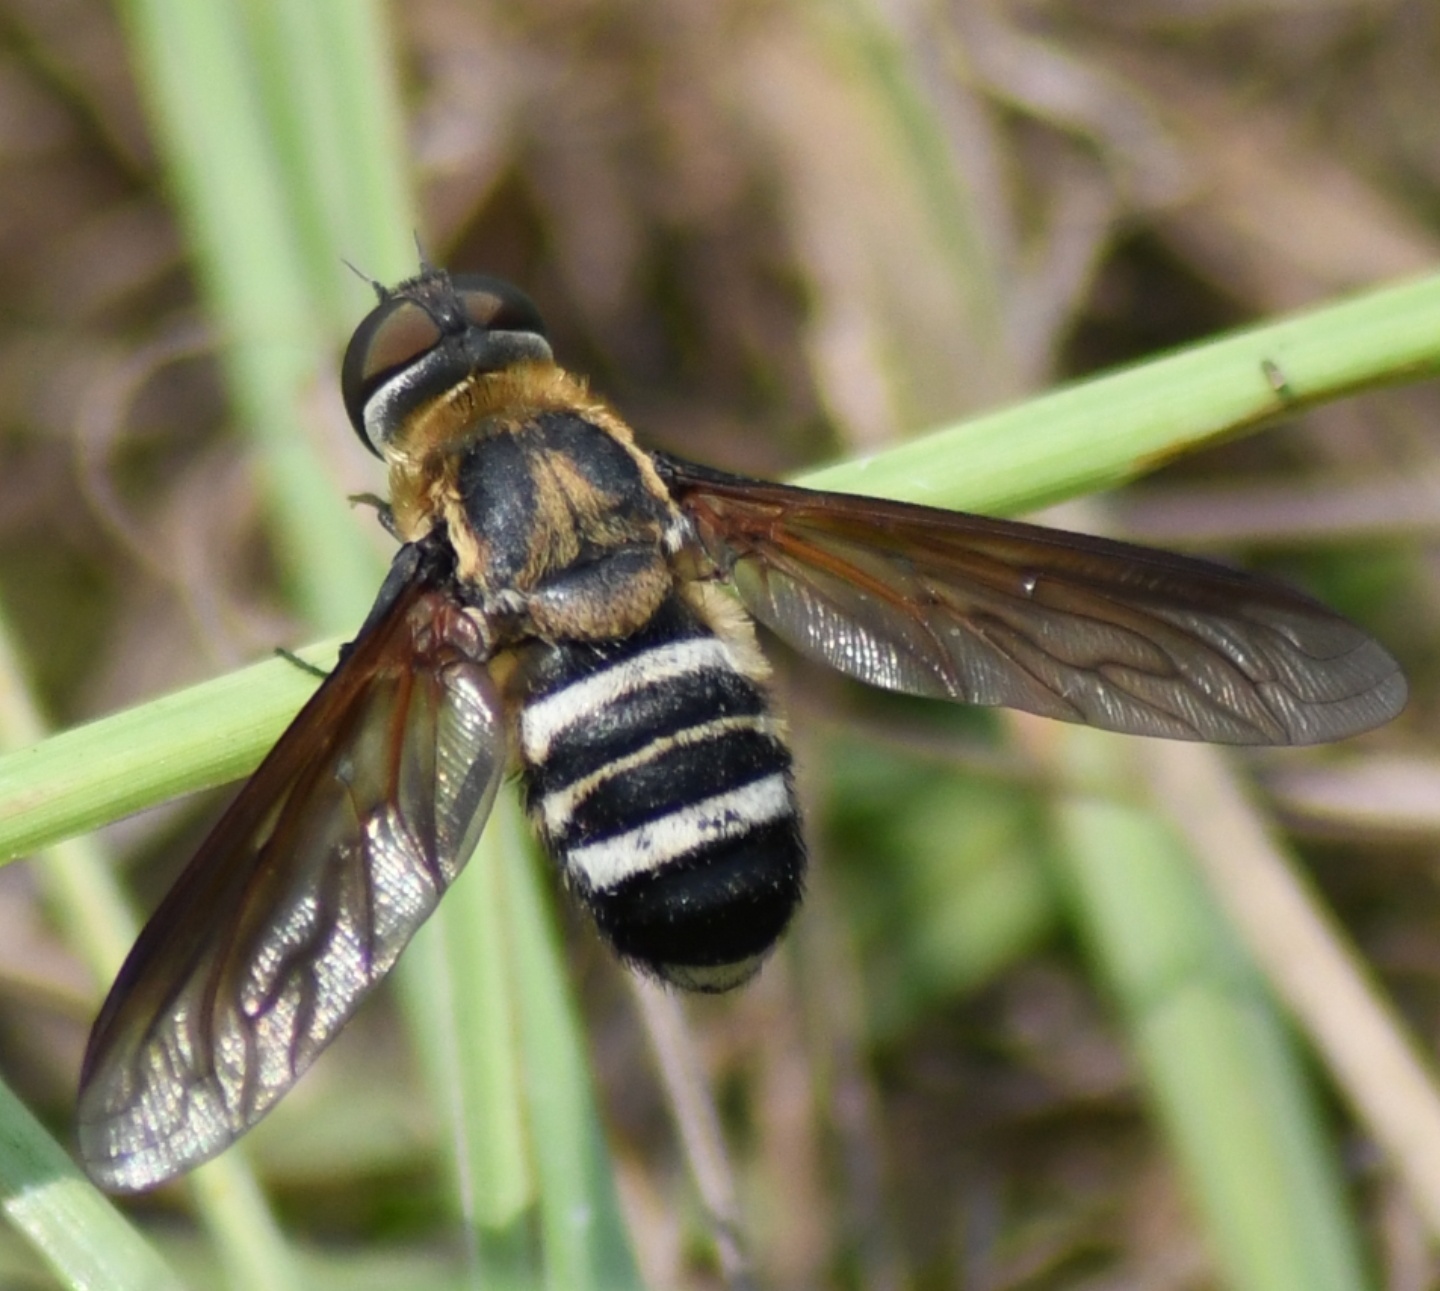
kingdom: Animalia
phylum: Arthropoda
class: Insecta
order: Diptera
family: Bombyliidae
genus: Exoprosopa
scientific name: Exoprosopa fasciata
